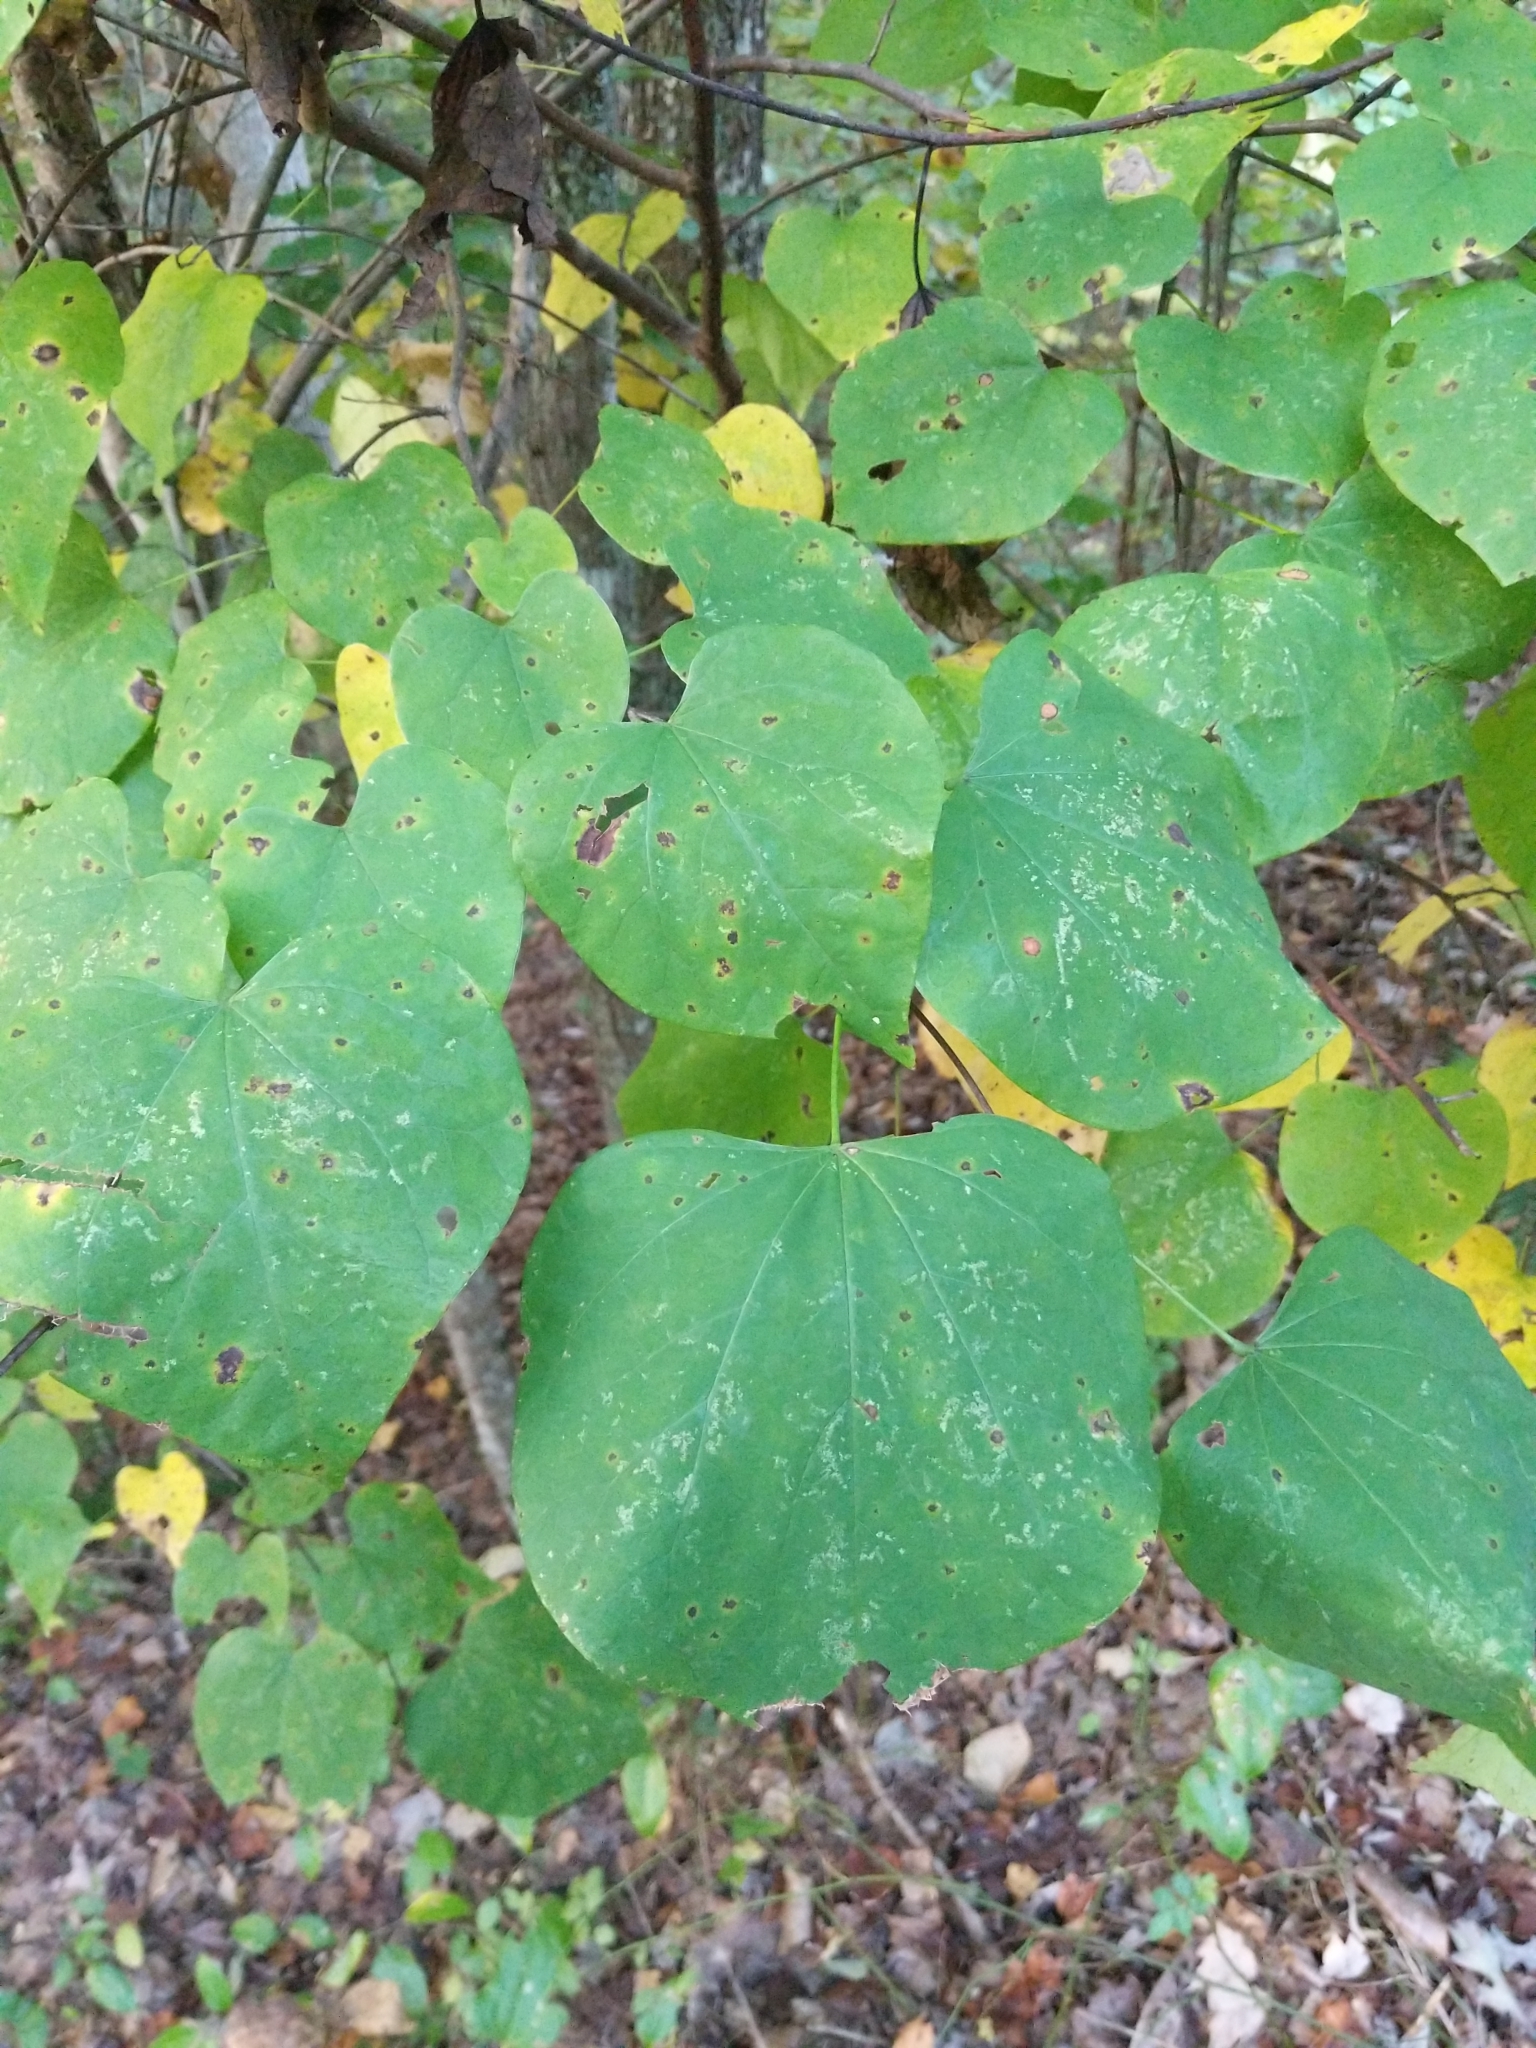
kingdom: Plantae
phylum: Tracheophyta
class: Magnoliopsida
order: Fabales
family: Fabaceae
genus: Cercis
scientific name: Cercis canadensis
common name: Eastern redbud
